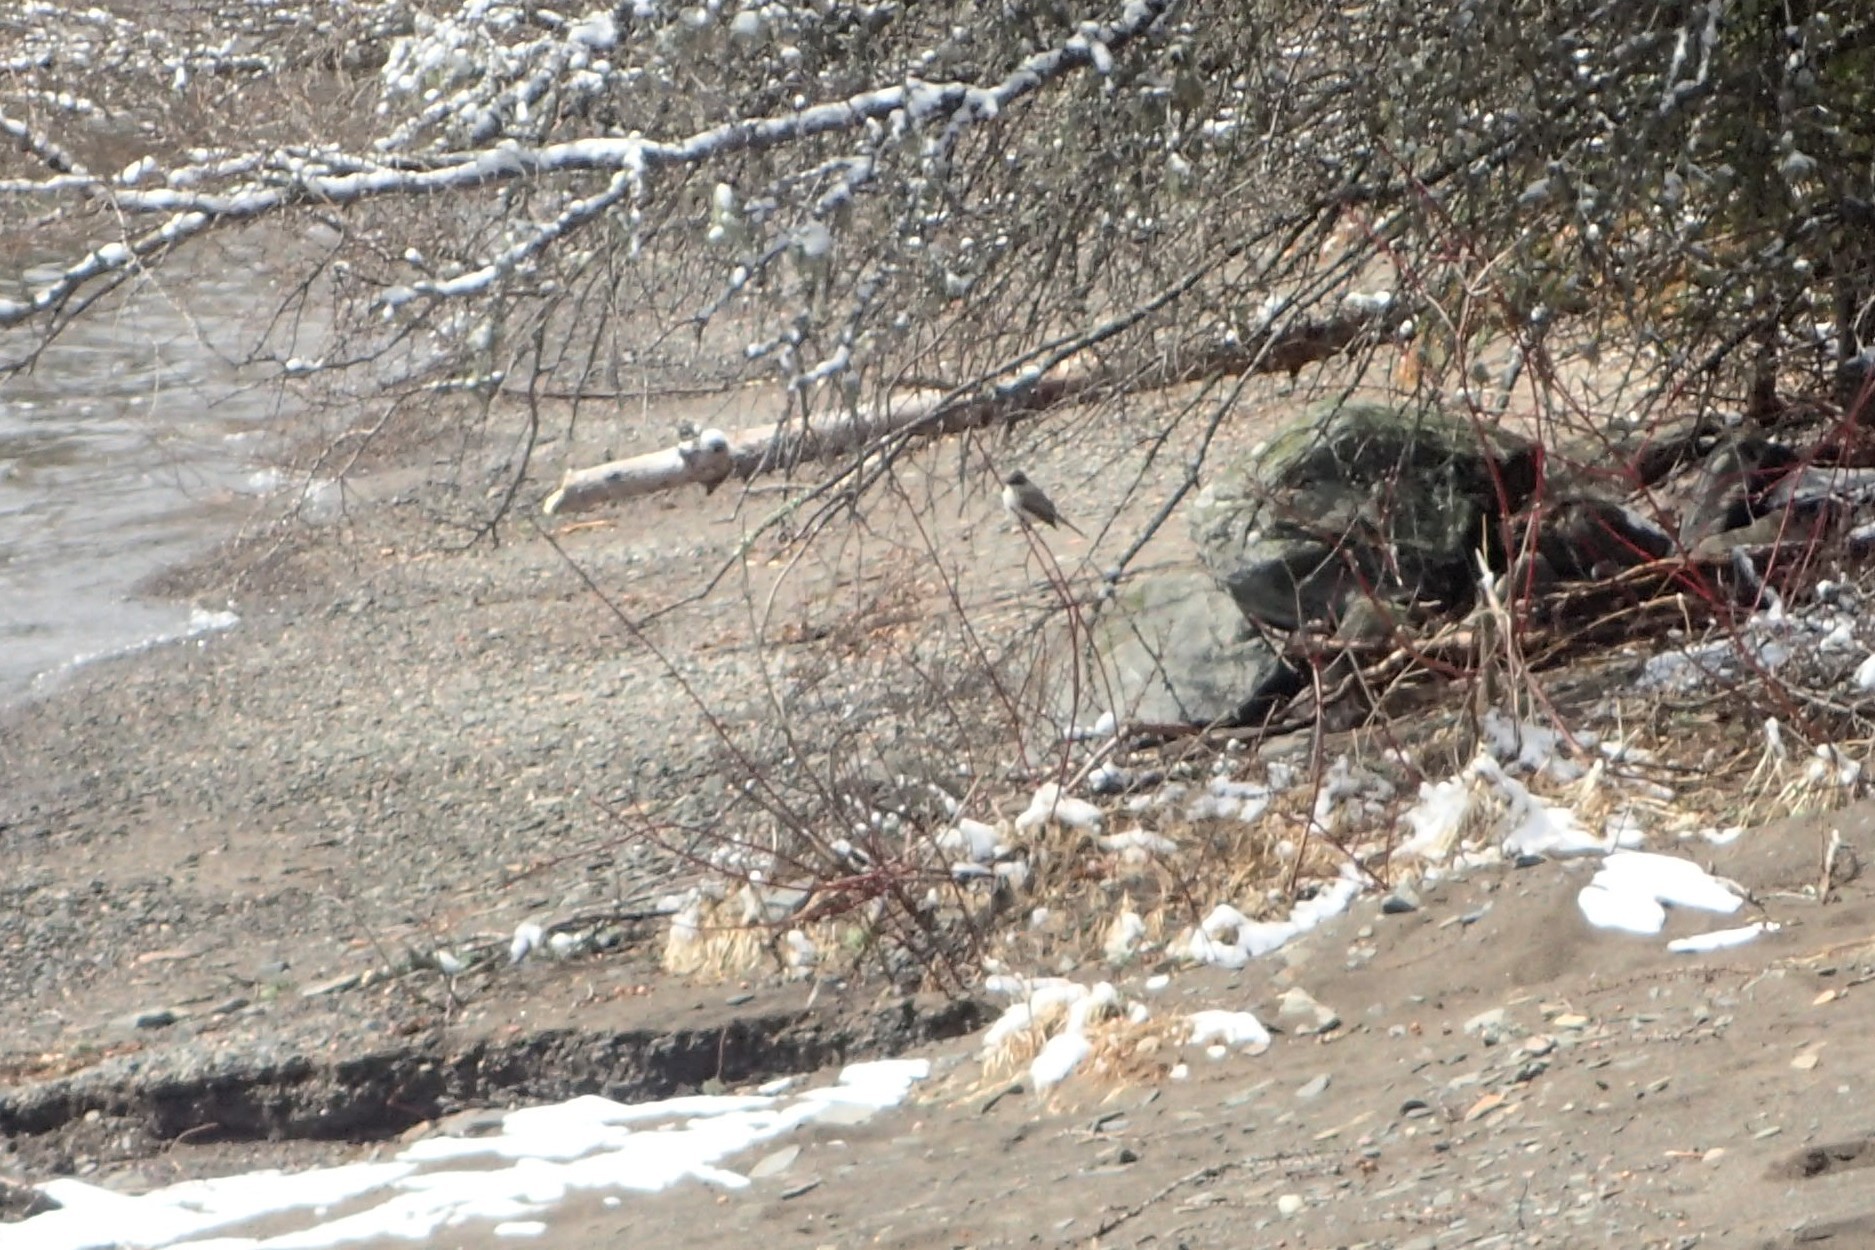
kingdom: Animalia
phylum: Chordata
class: Aves
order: Passeriformes
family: Tyrannidae
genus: Sayornis
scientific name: Sayornis phoebe
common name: Eastern phoebe
